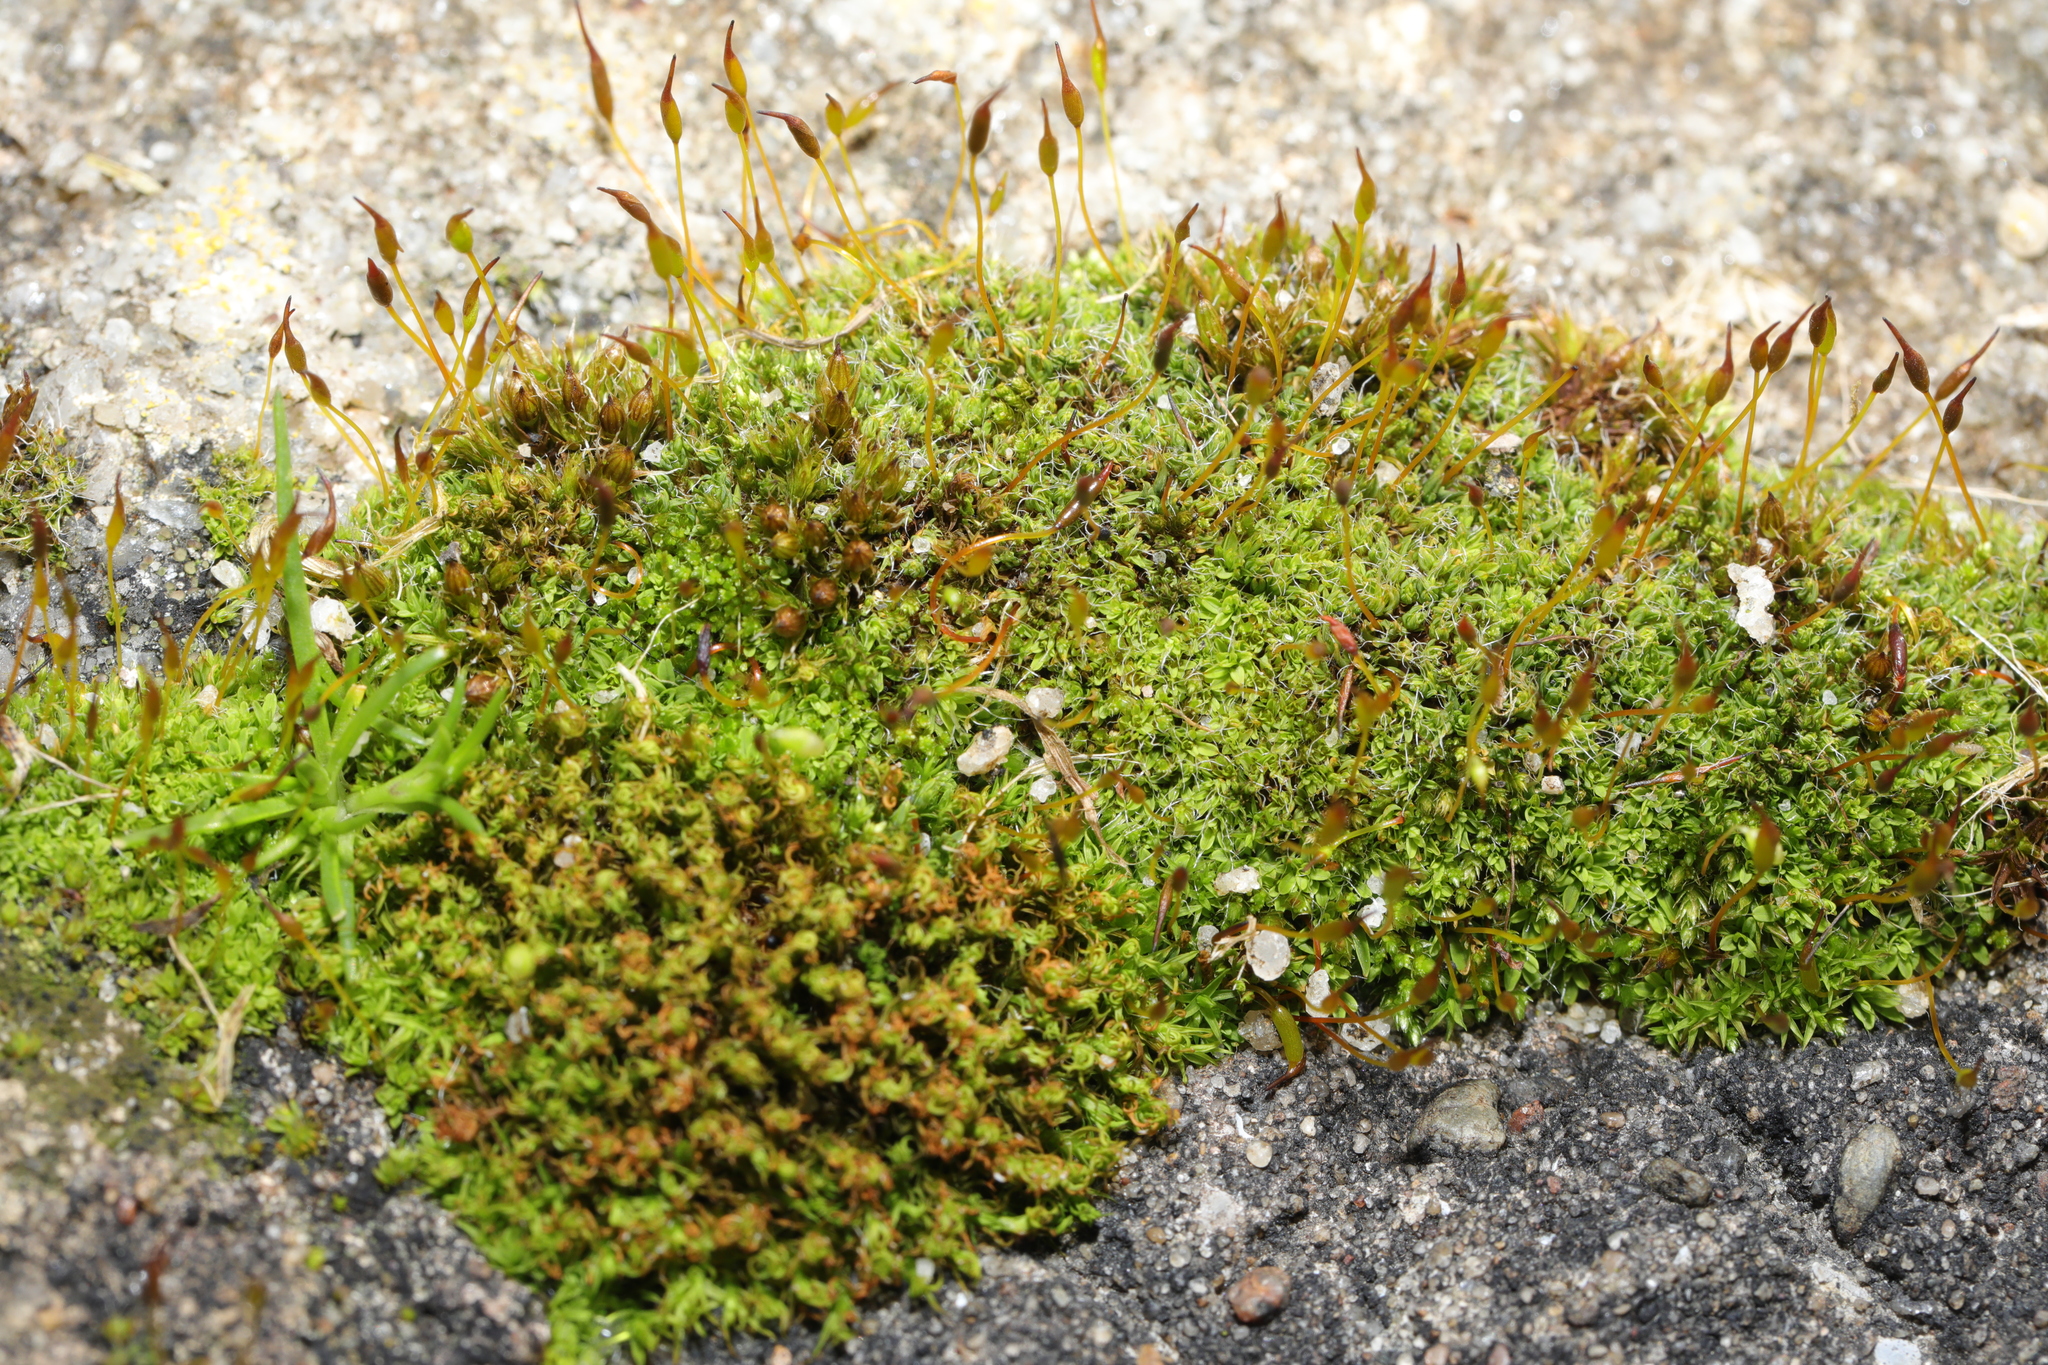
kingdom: Plantae
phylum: Bryophyta
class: Bryopsida
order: Pottiales
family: Pottiaceae
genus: Tortula
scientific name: Tortula muralis
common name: Wall screw-moss
